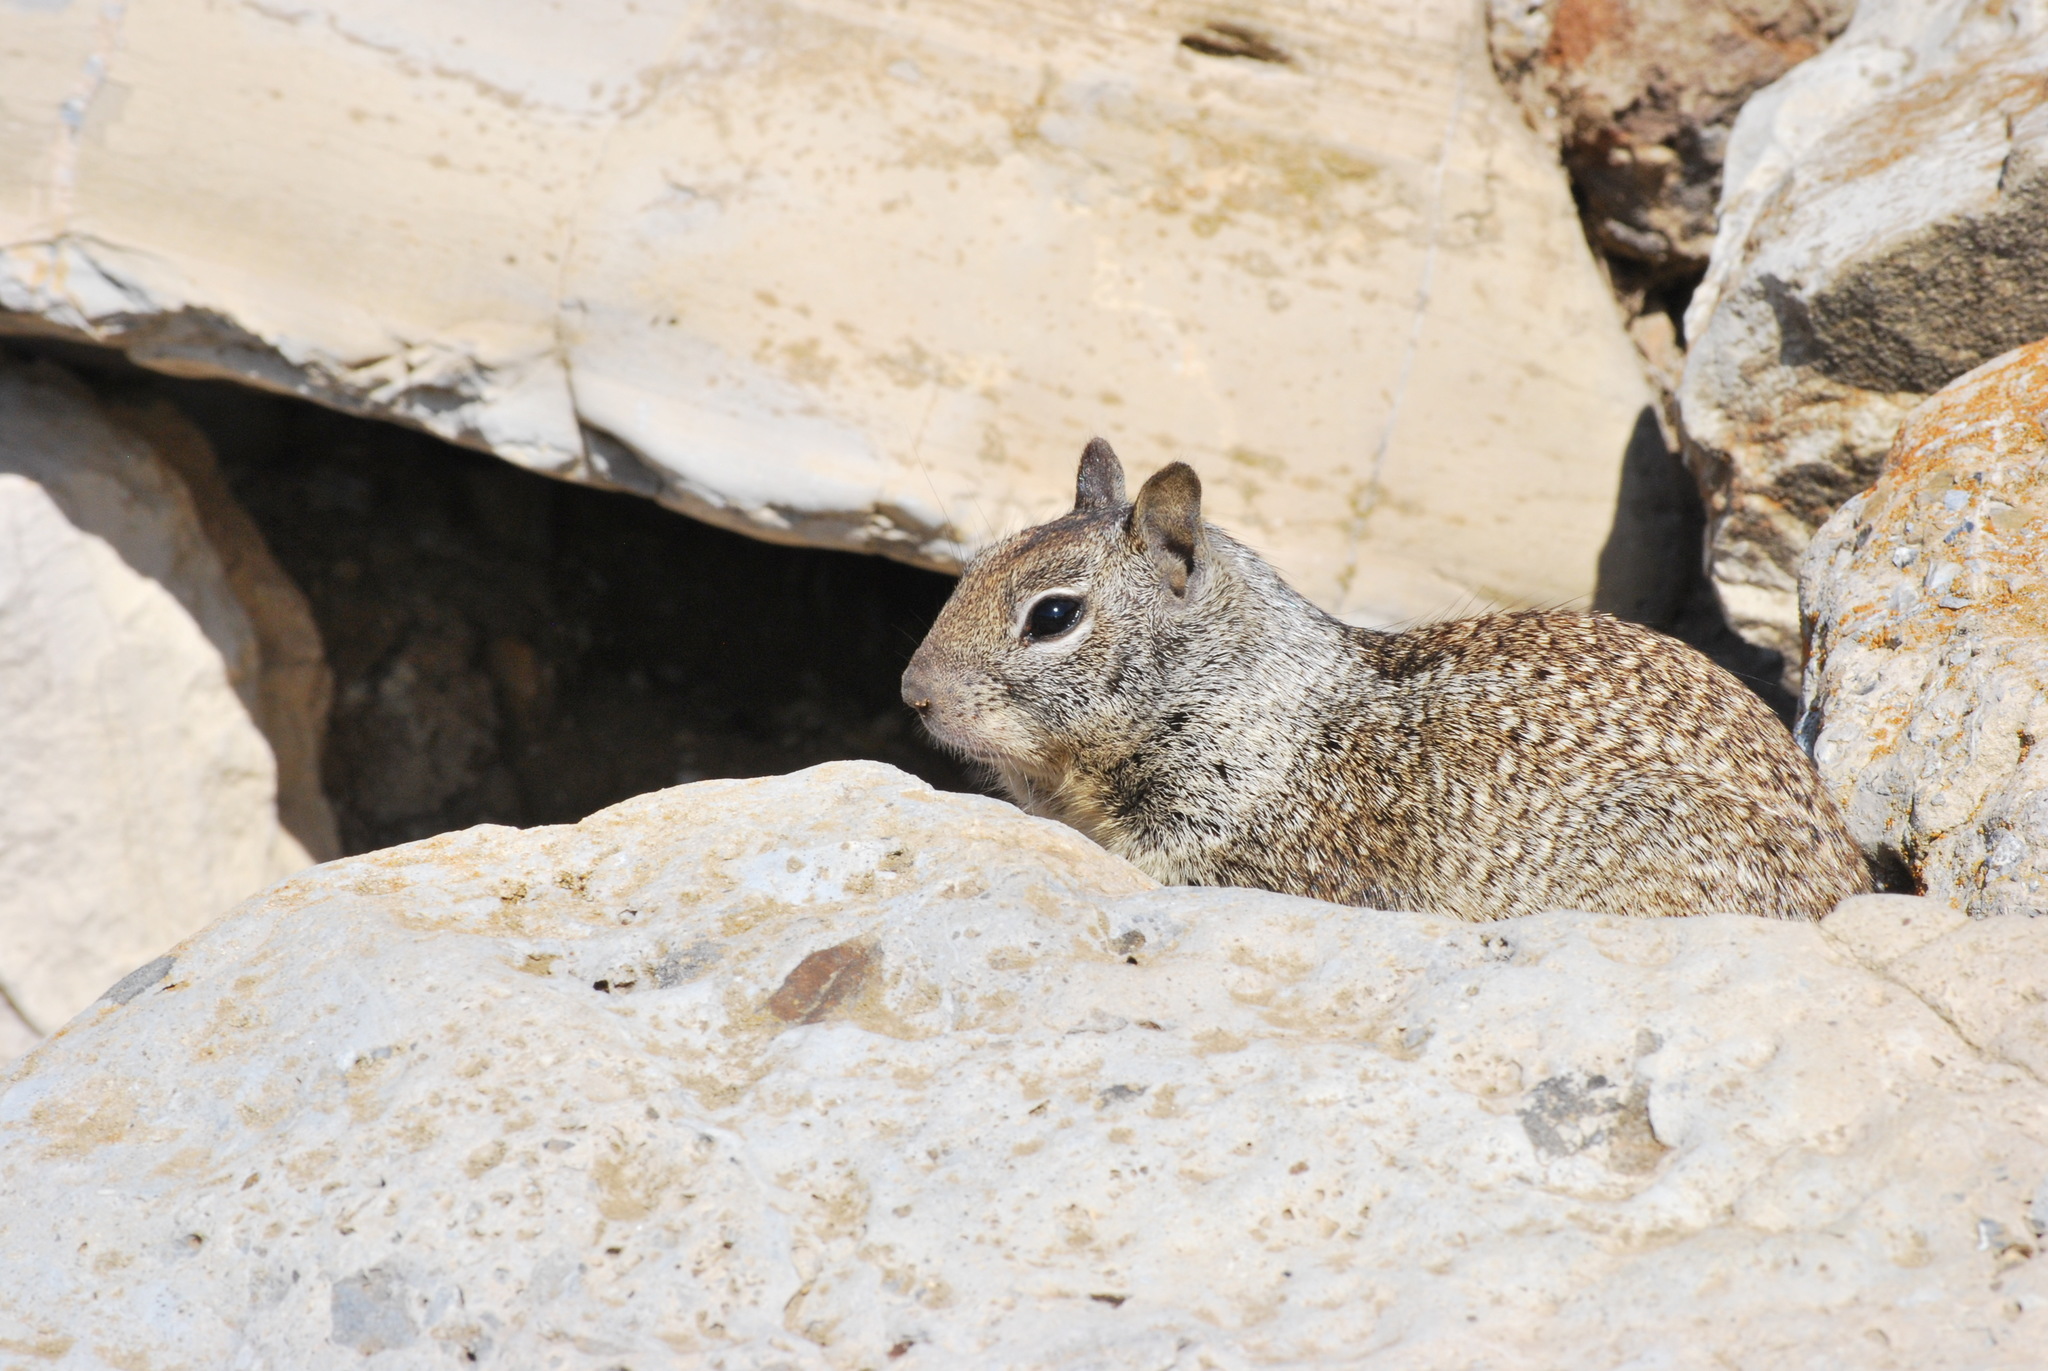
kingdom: Animalia
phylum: Chordata
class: Mammalia
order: Rodentia
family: Sciuridae
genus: Otospermophilus
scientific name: Otospermophilus beecheyi
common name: California ground squirrel
